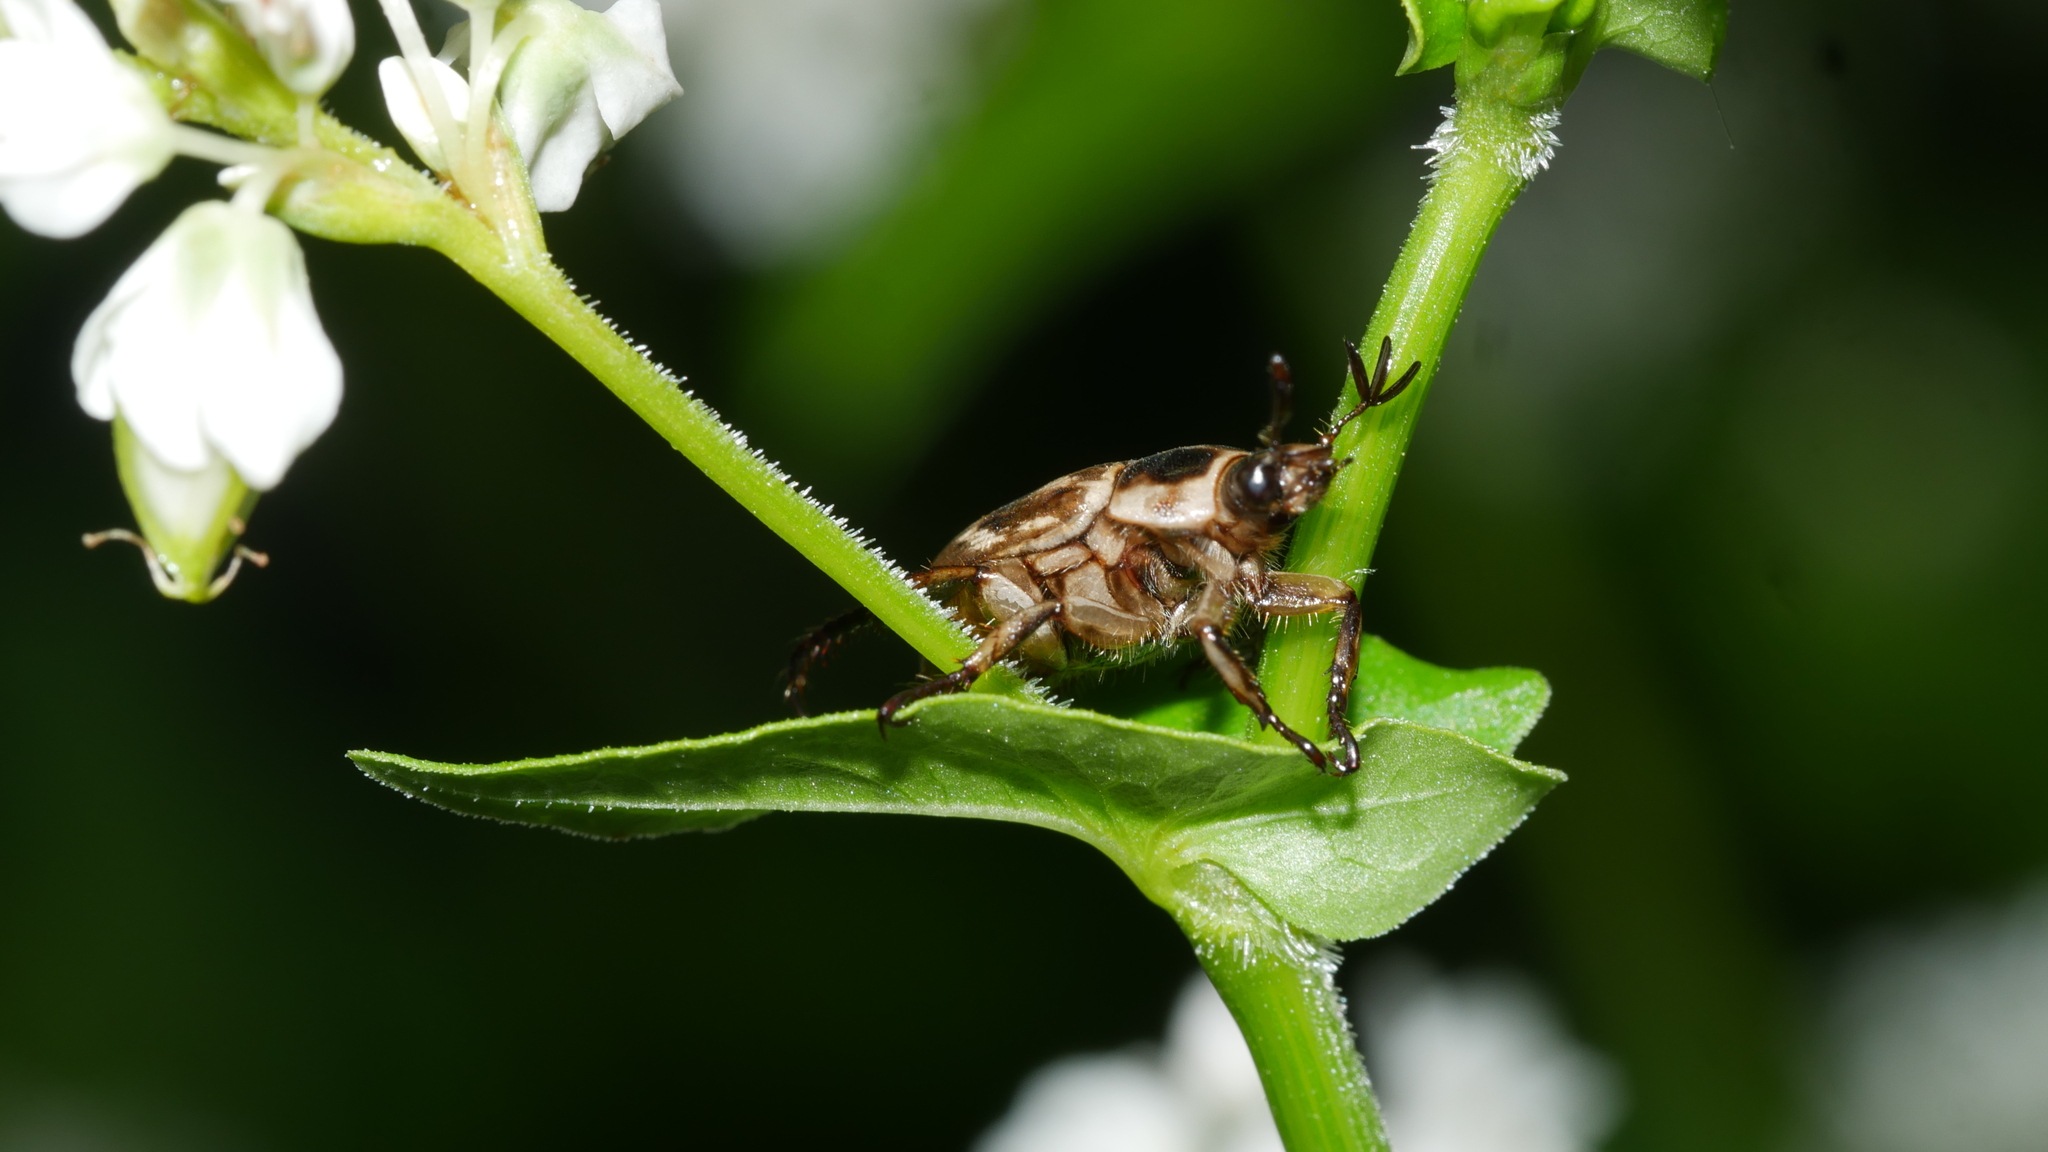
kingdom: Animalia
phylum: Arthropoda
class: Insecta
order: Coleoptera
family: Scarabaeidae
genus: Exomala
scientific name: Exomala orientalis
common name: Oriental beetle
